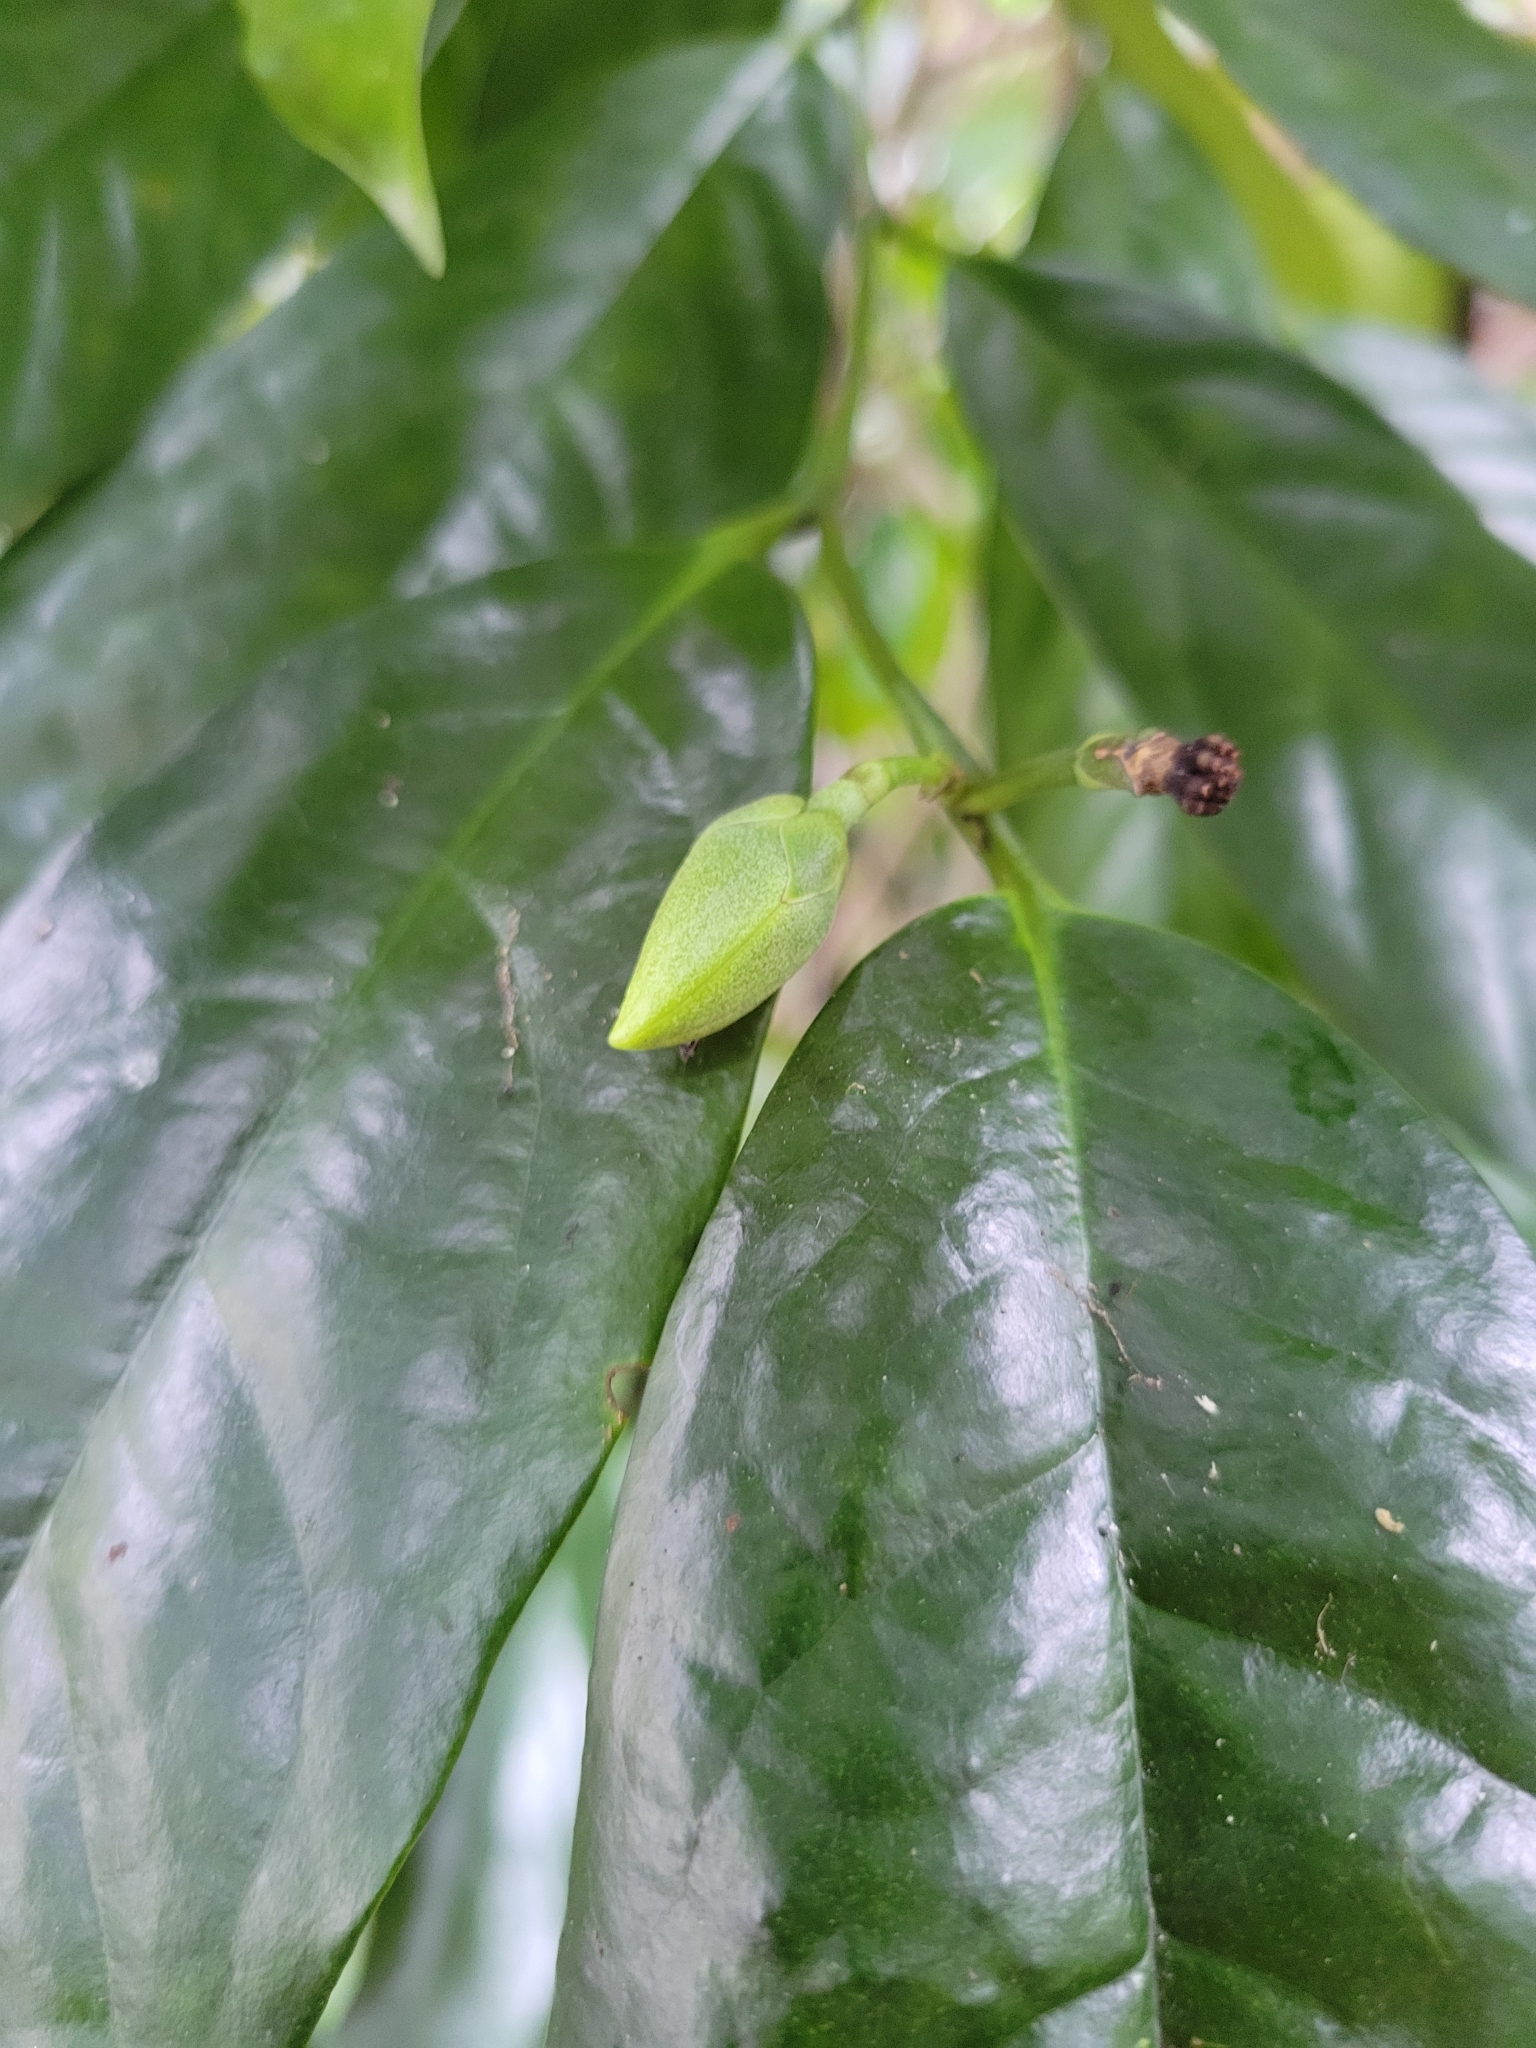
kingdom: Plantae
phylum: Tracheophyta
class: Magnoliopsida
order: Magnoliales
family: Annonaceae
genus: Anaxagorea
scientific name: Anaxagorea javanica
